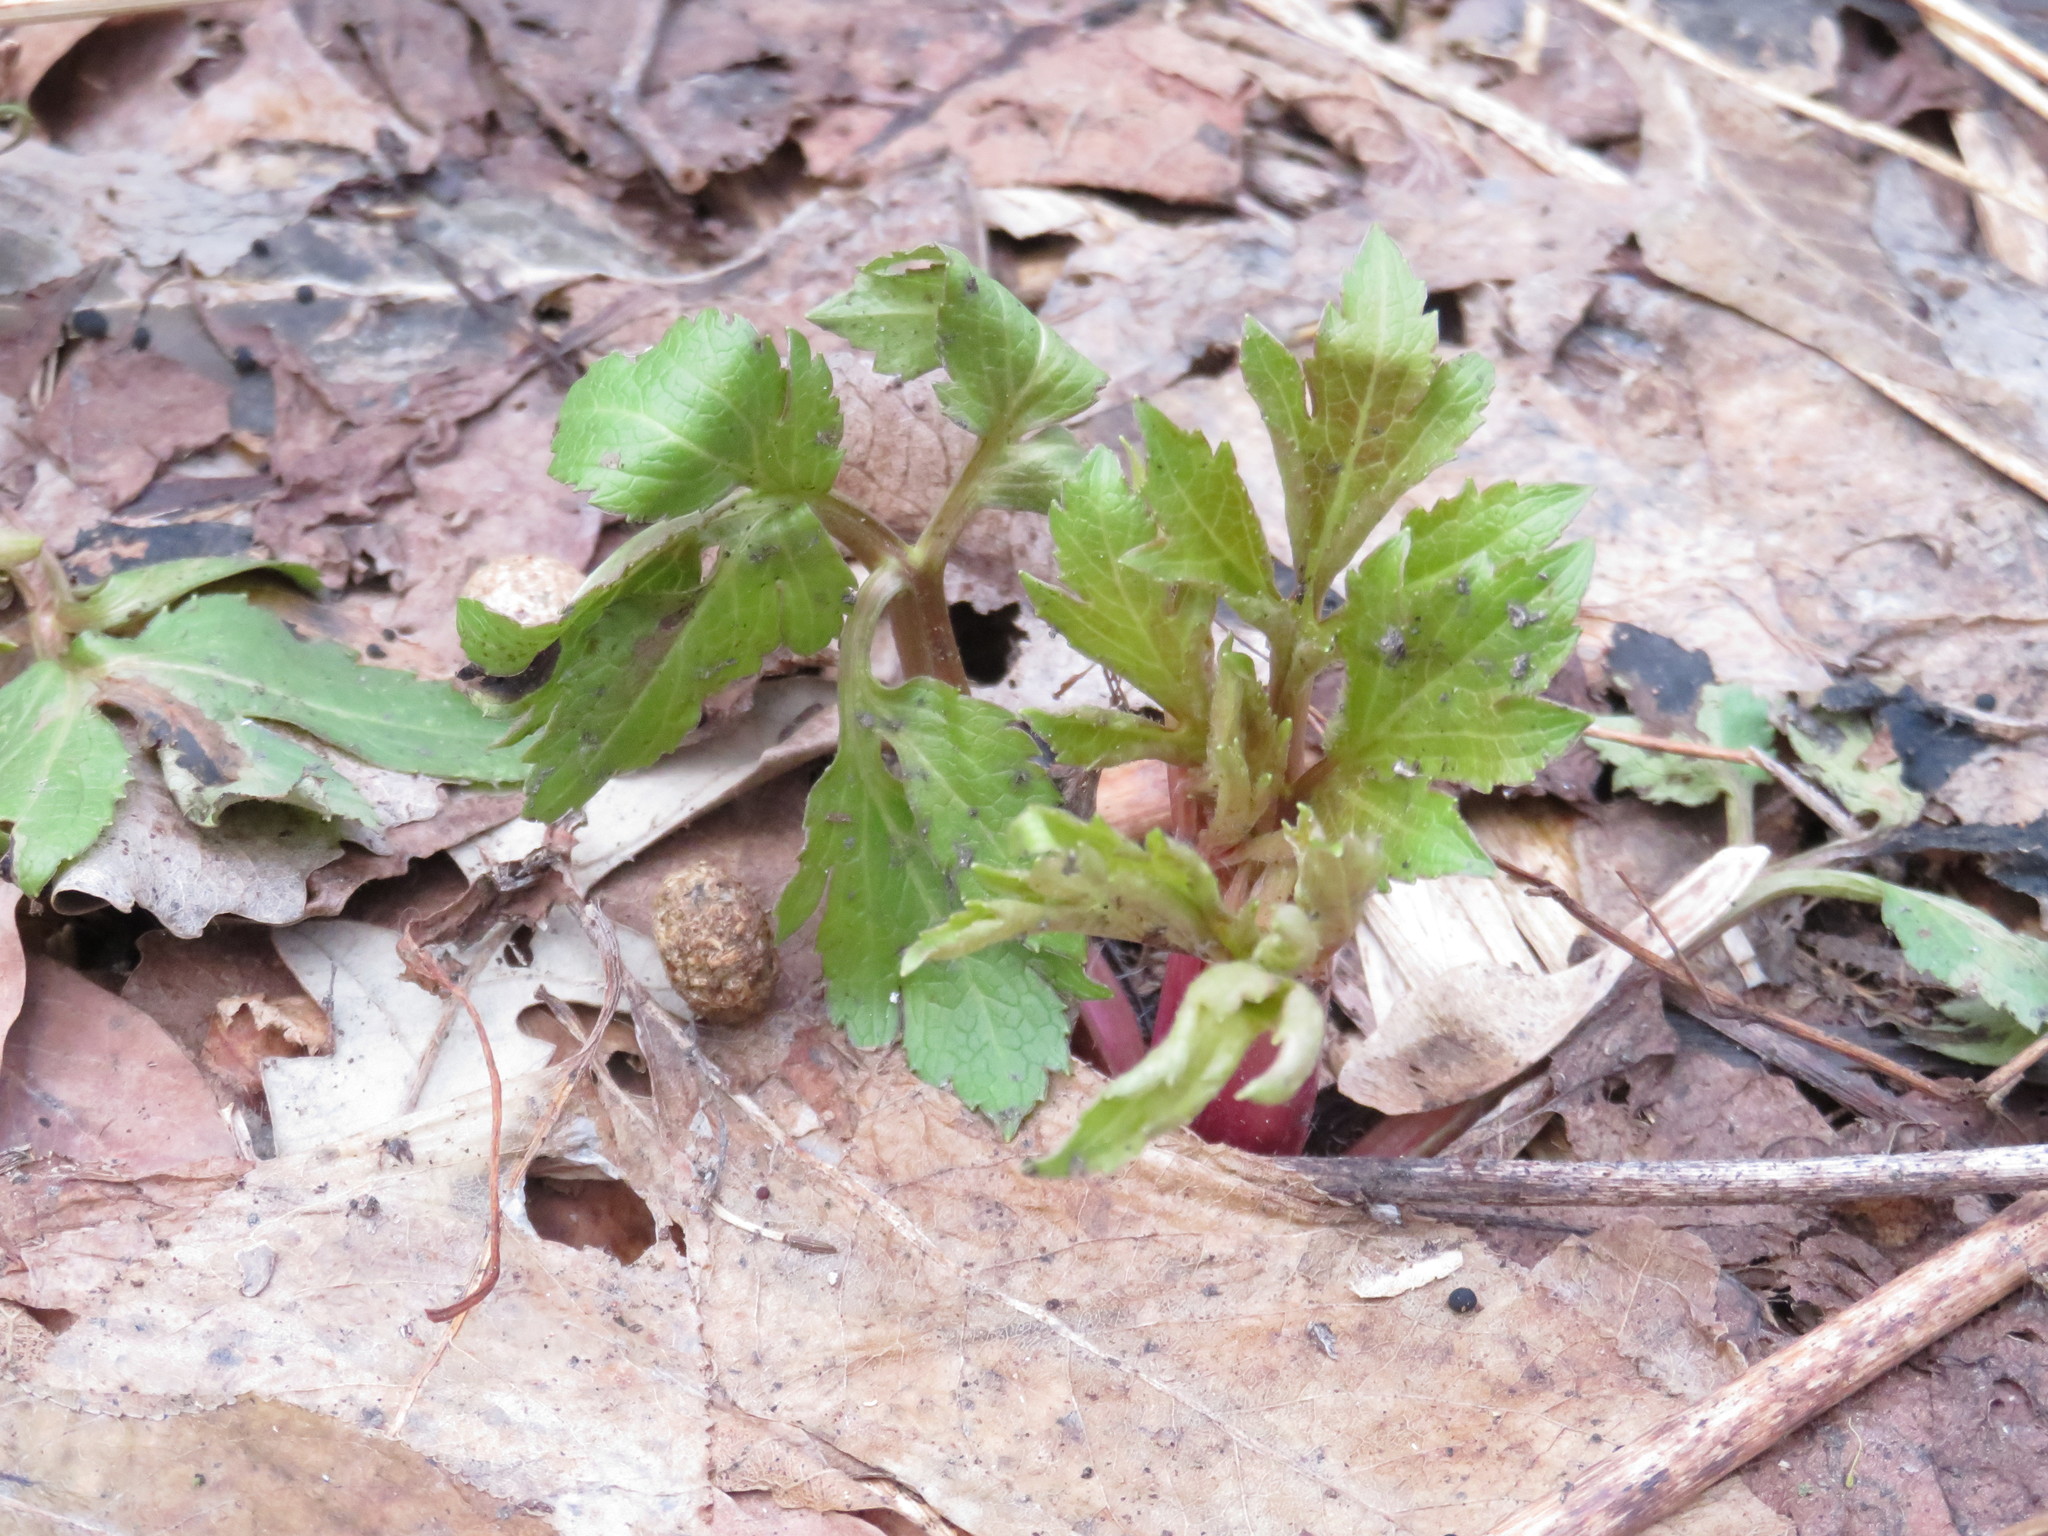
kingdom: Plantae
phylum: Tracheophyta
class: Magnoliopsida
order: Asterales
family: Asteraceae
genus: Rudbeckia
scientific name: Rudbeckia laciniata
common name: Coneflower
